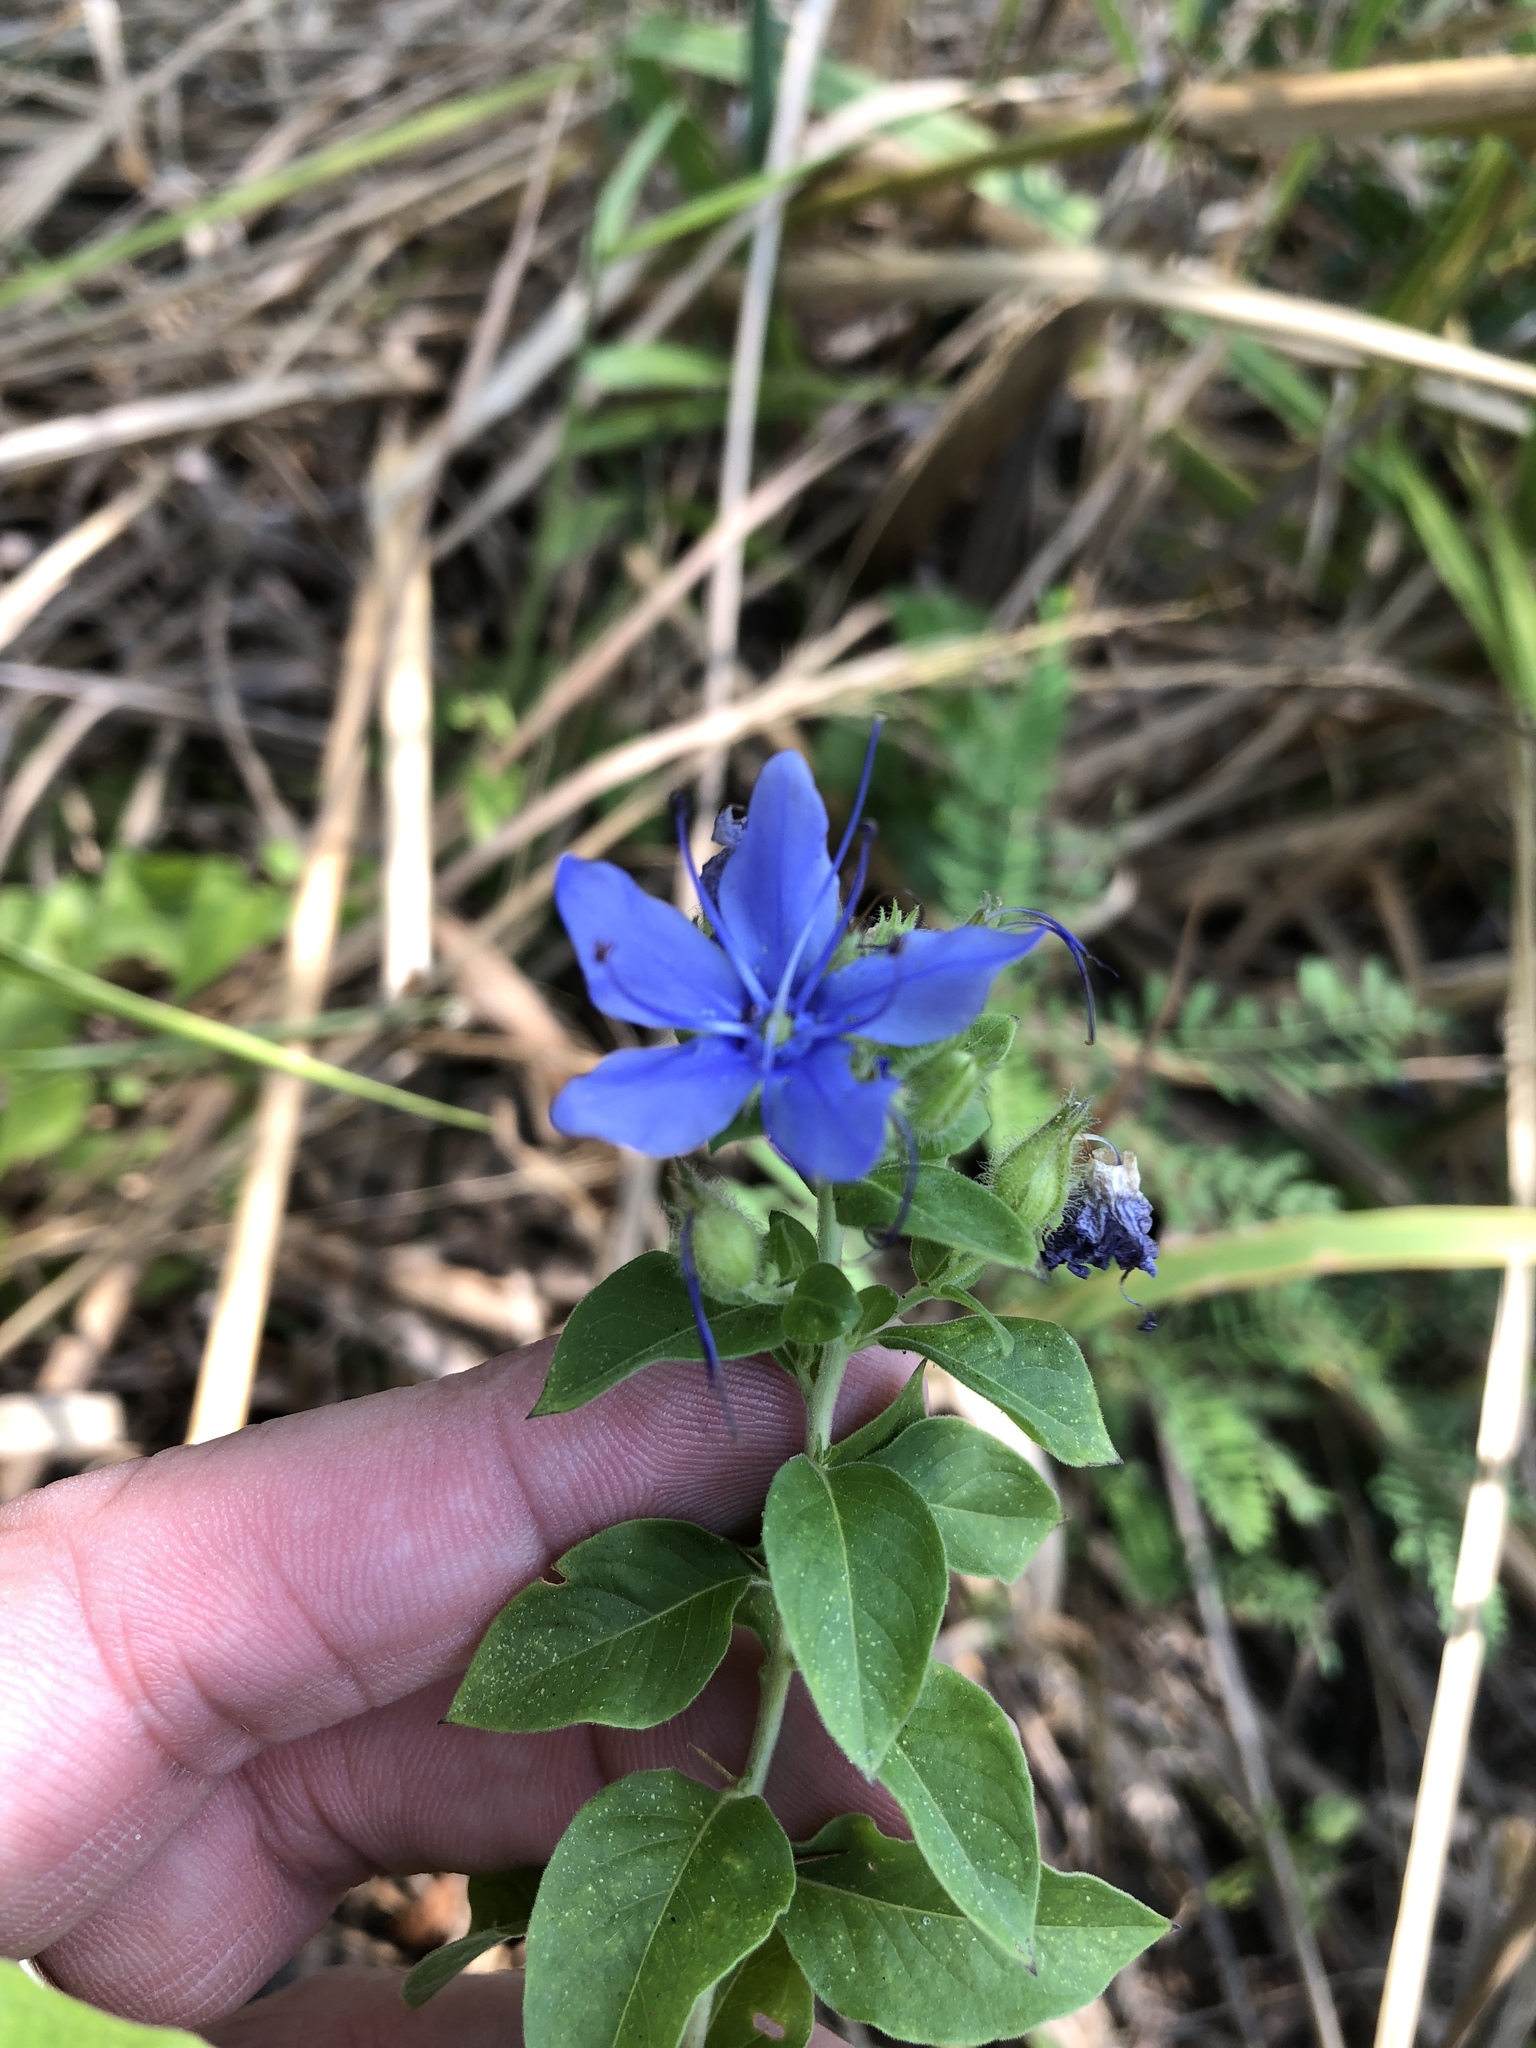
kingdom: Plantae
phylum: Tracheophyta
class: Magnoliopsida
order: Solanales
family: Hydroleaceae
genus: Hydrolea
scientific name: Hydrolea ovata
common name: Ovate false fiddleleaf
